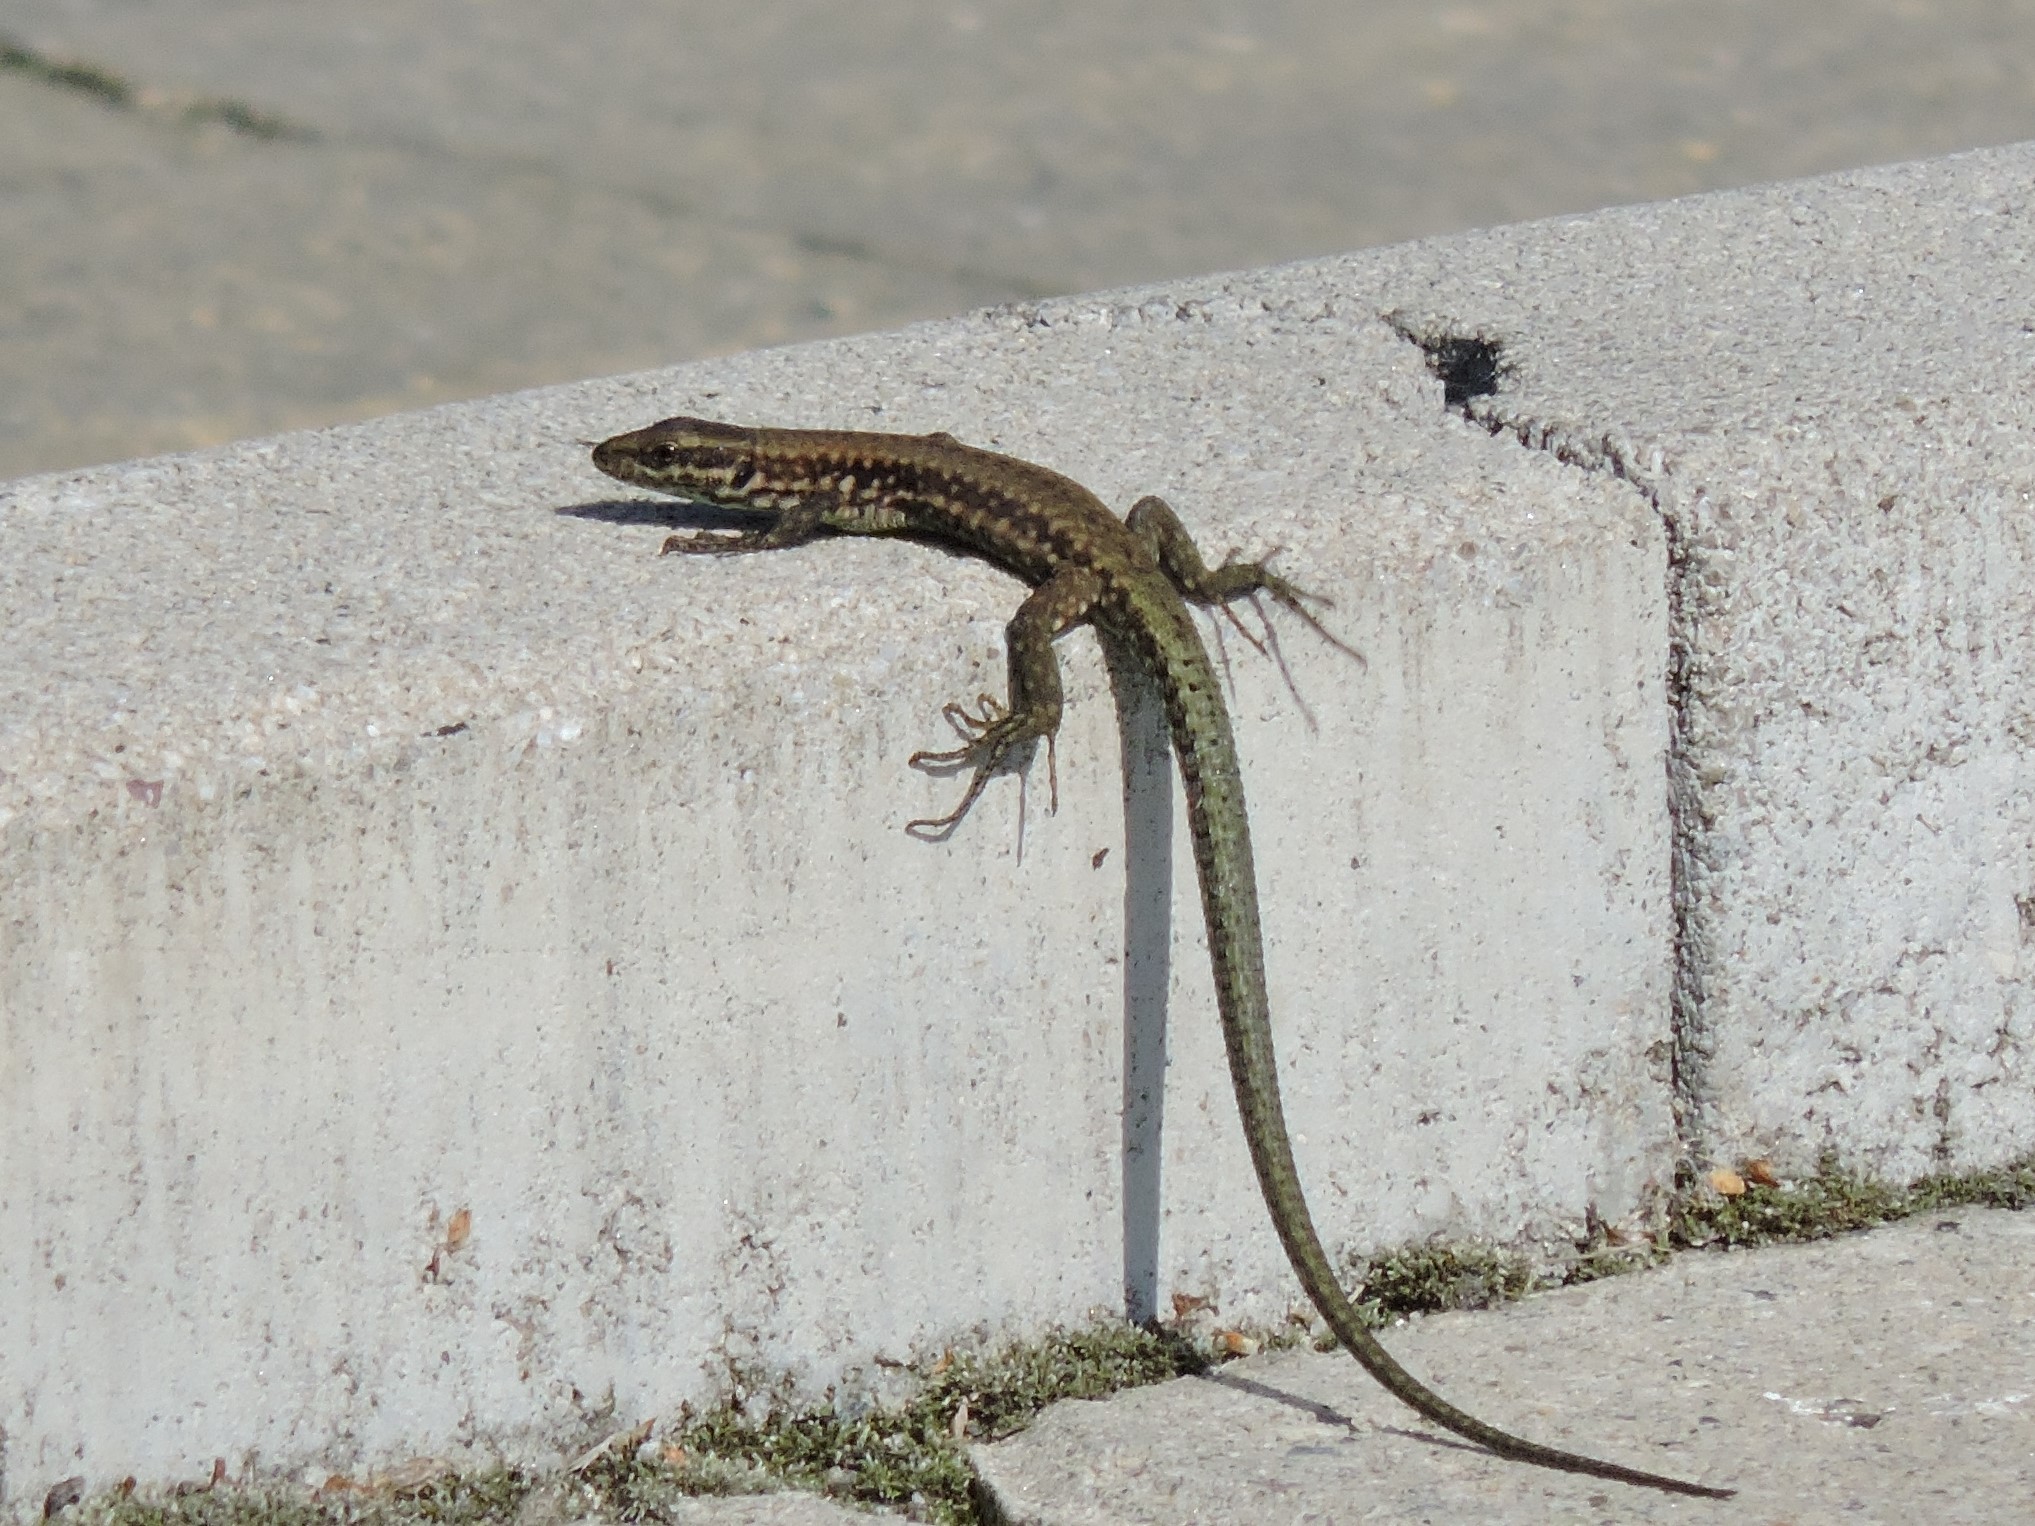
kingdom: Animalia
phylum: Chordata
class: Squamata
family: Lacertidae
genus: Podarcis
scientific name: Podarcis muralis
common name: Common wall lizard
